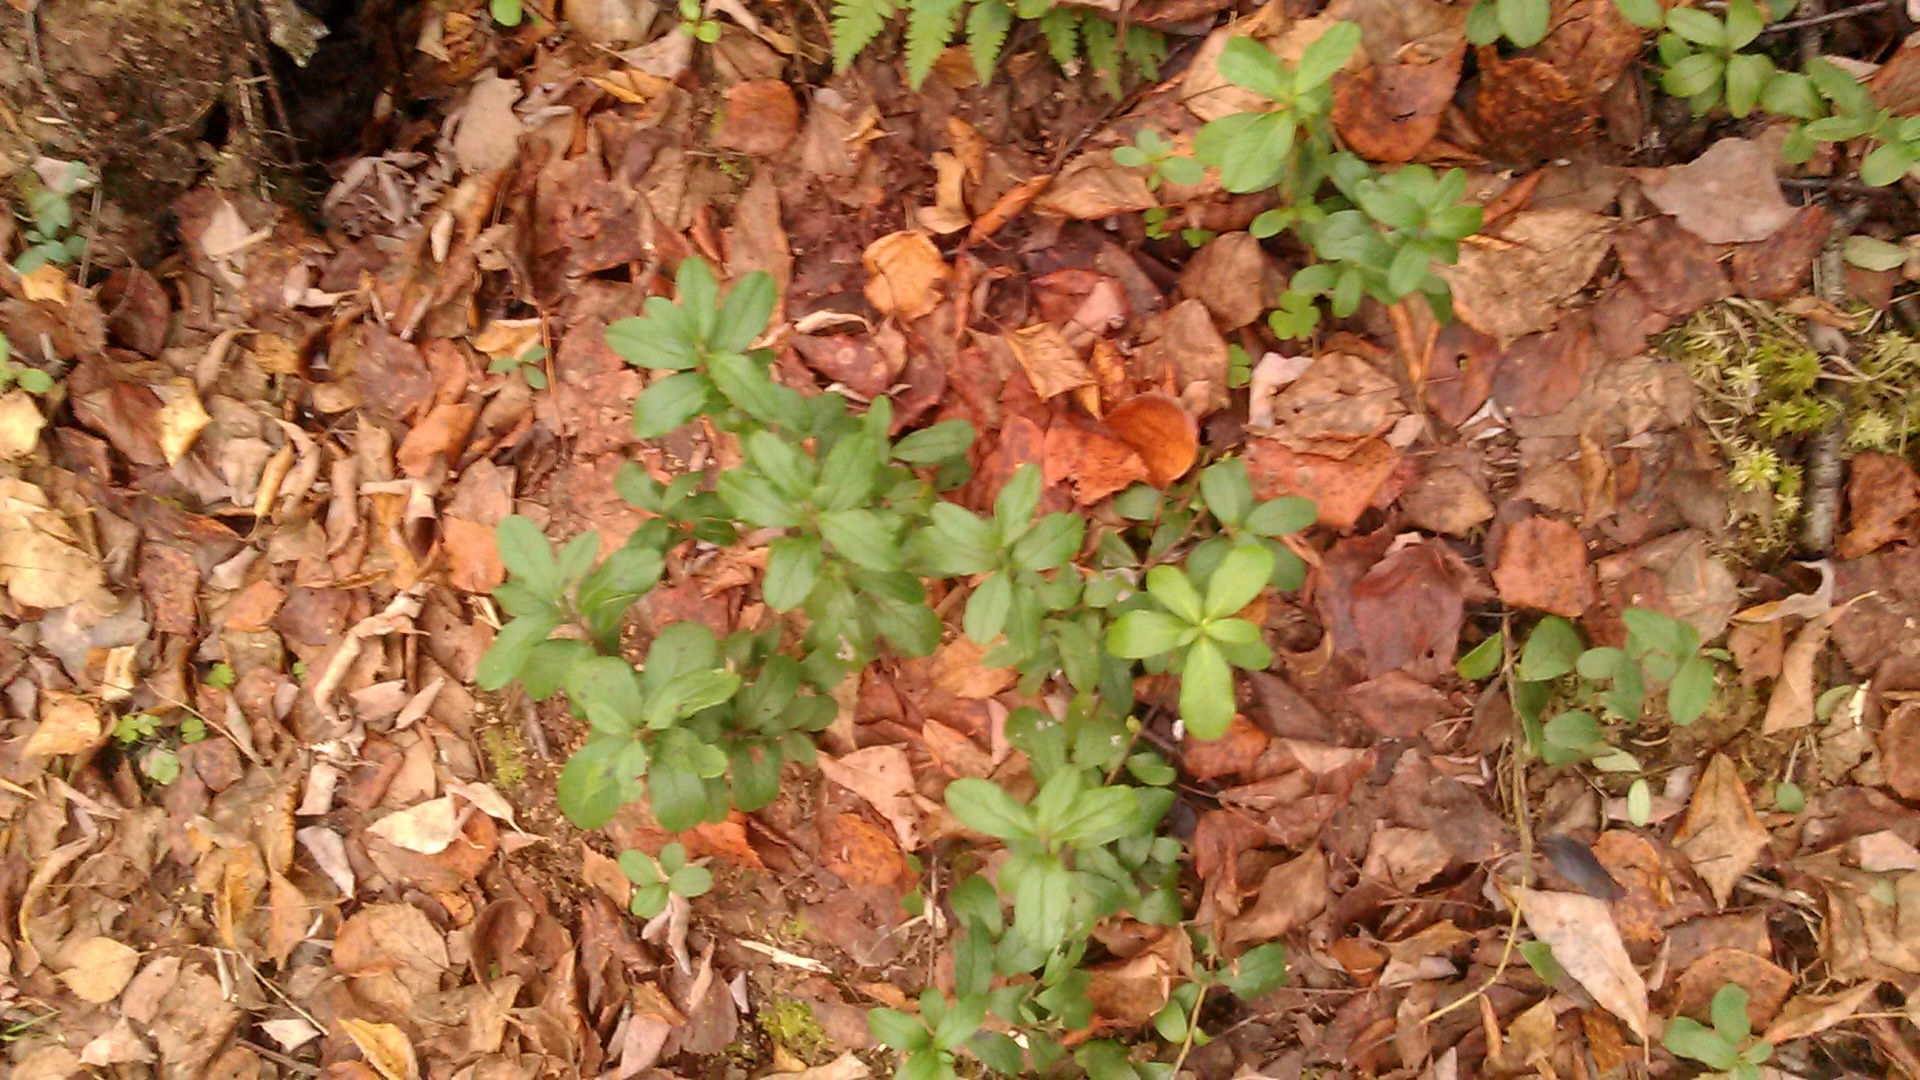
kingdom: Plantae
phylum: Tracheophyta
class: Magnoliopsida
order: Ericales
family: Ericaceae
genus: Vaccinium
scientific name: Vaccinium vitis-idaea
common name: Cowberry
